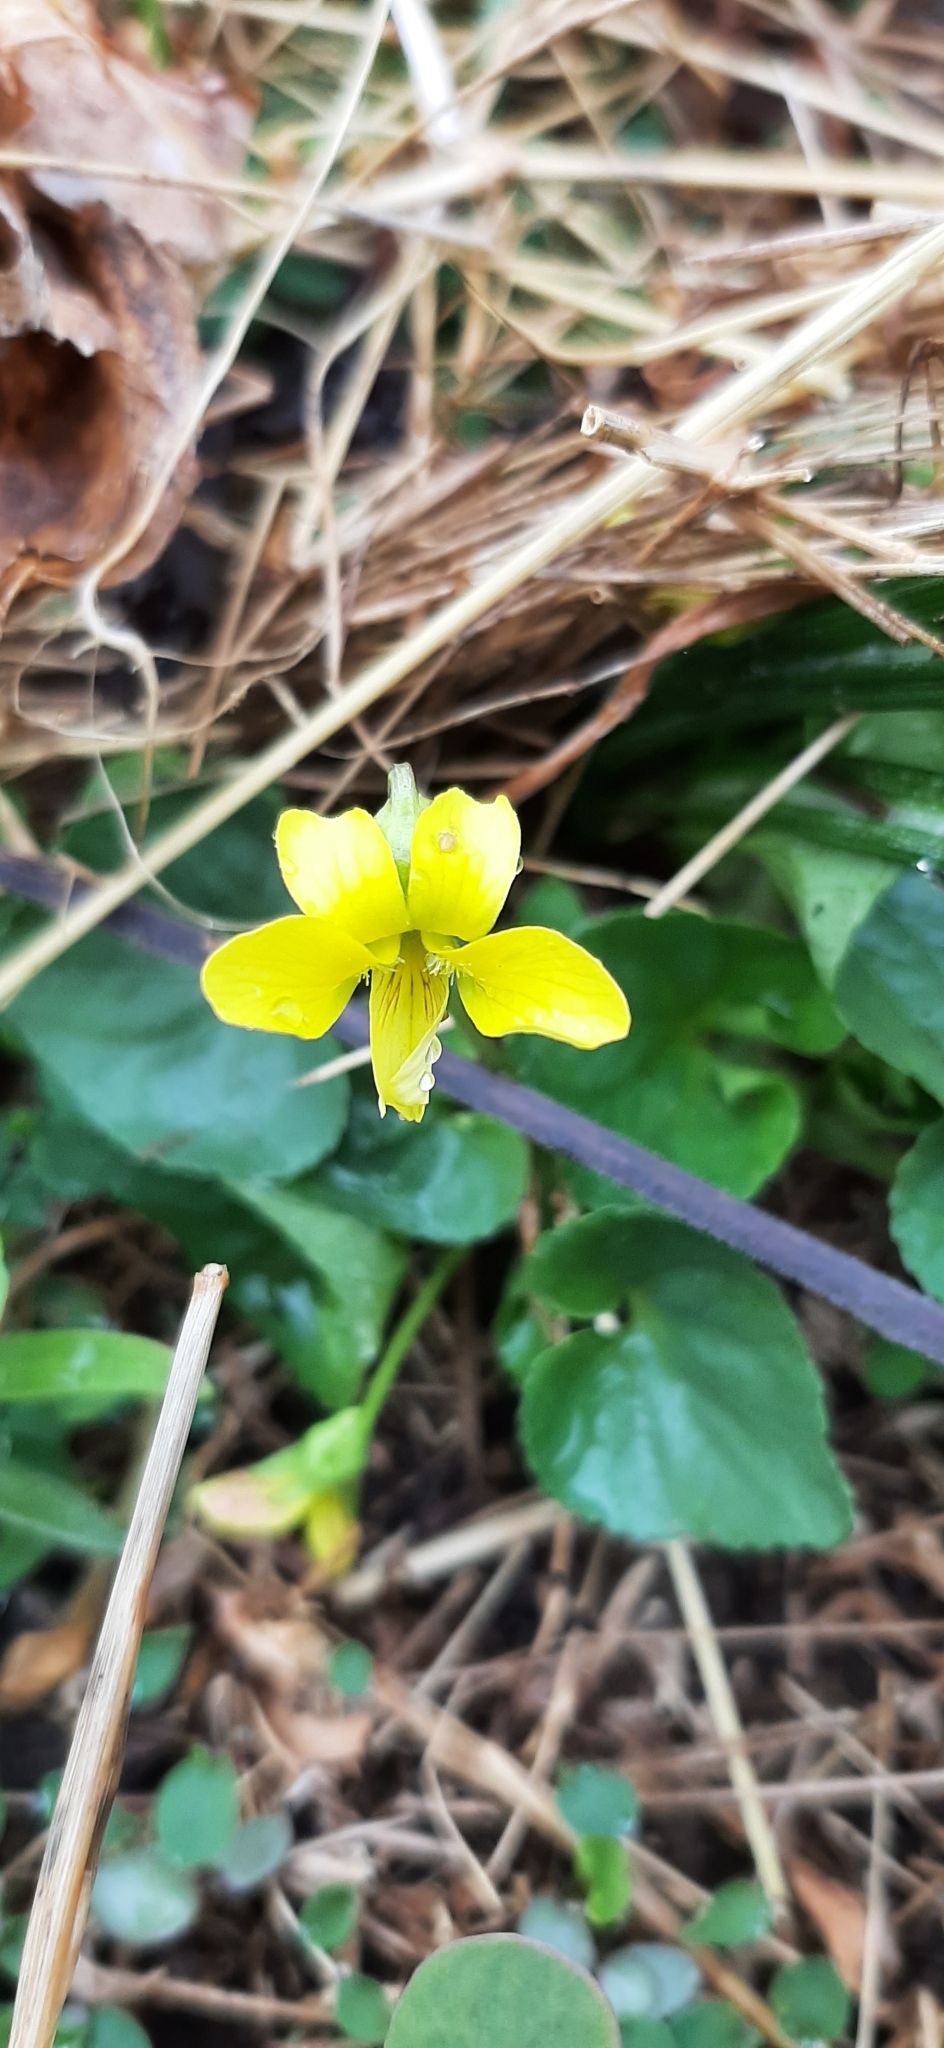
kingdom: Plantae
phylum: Tracheophyta
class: Magnoliopsida
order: Malpighiales
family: Violaceae
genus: Viola
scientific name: Viola eriocarpa
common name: Smooth yellow violet
